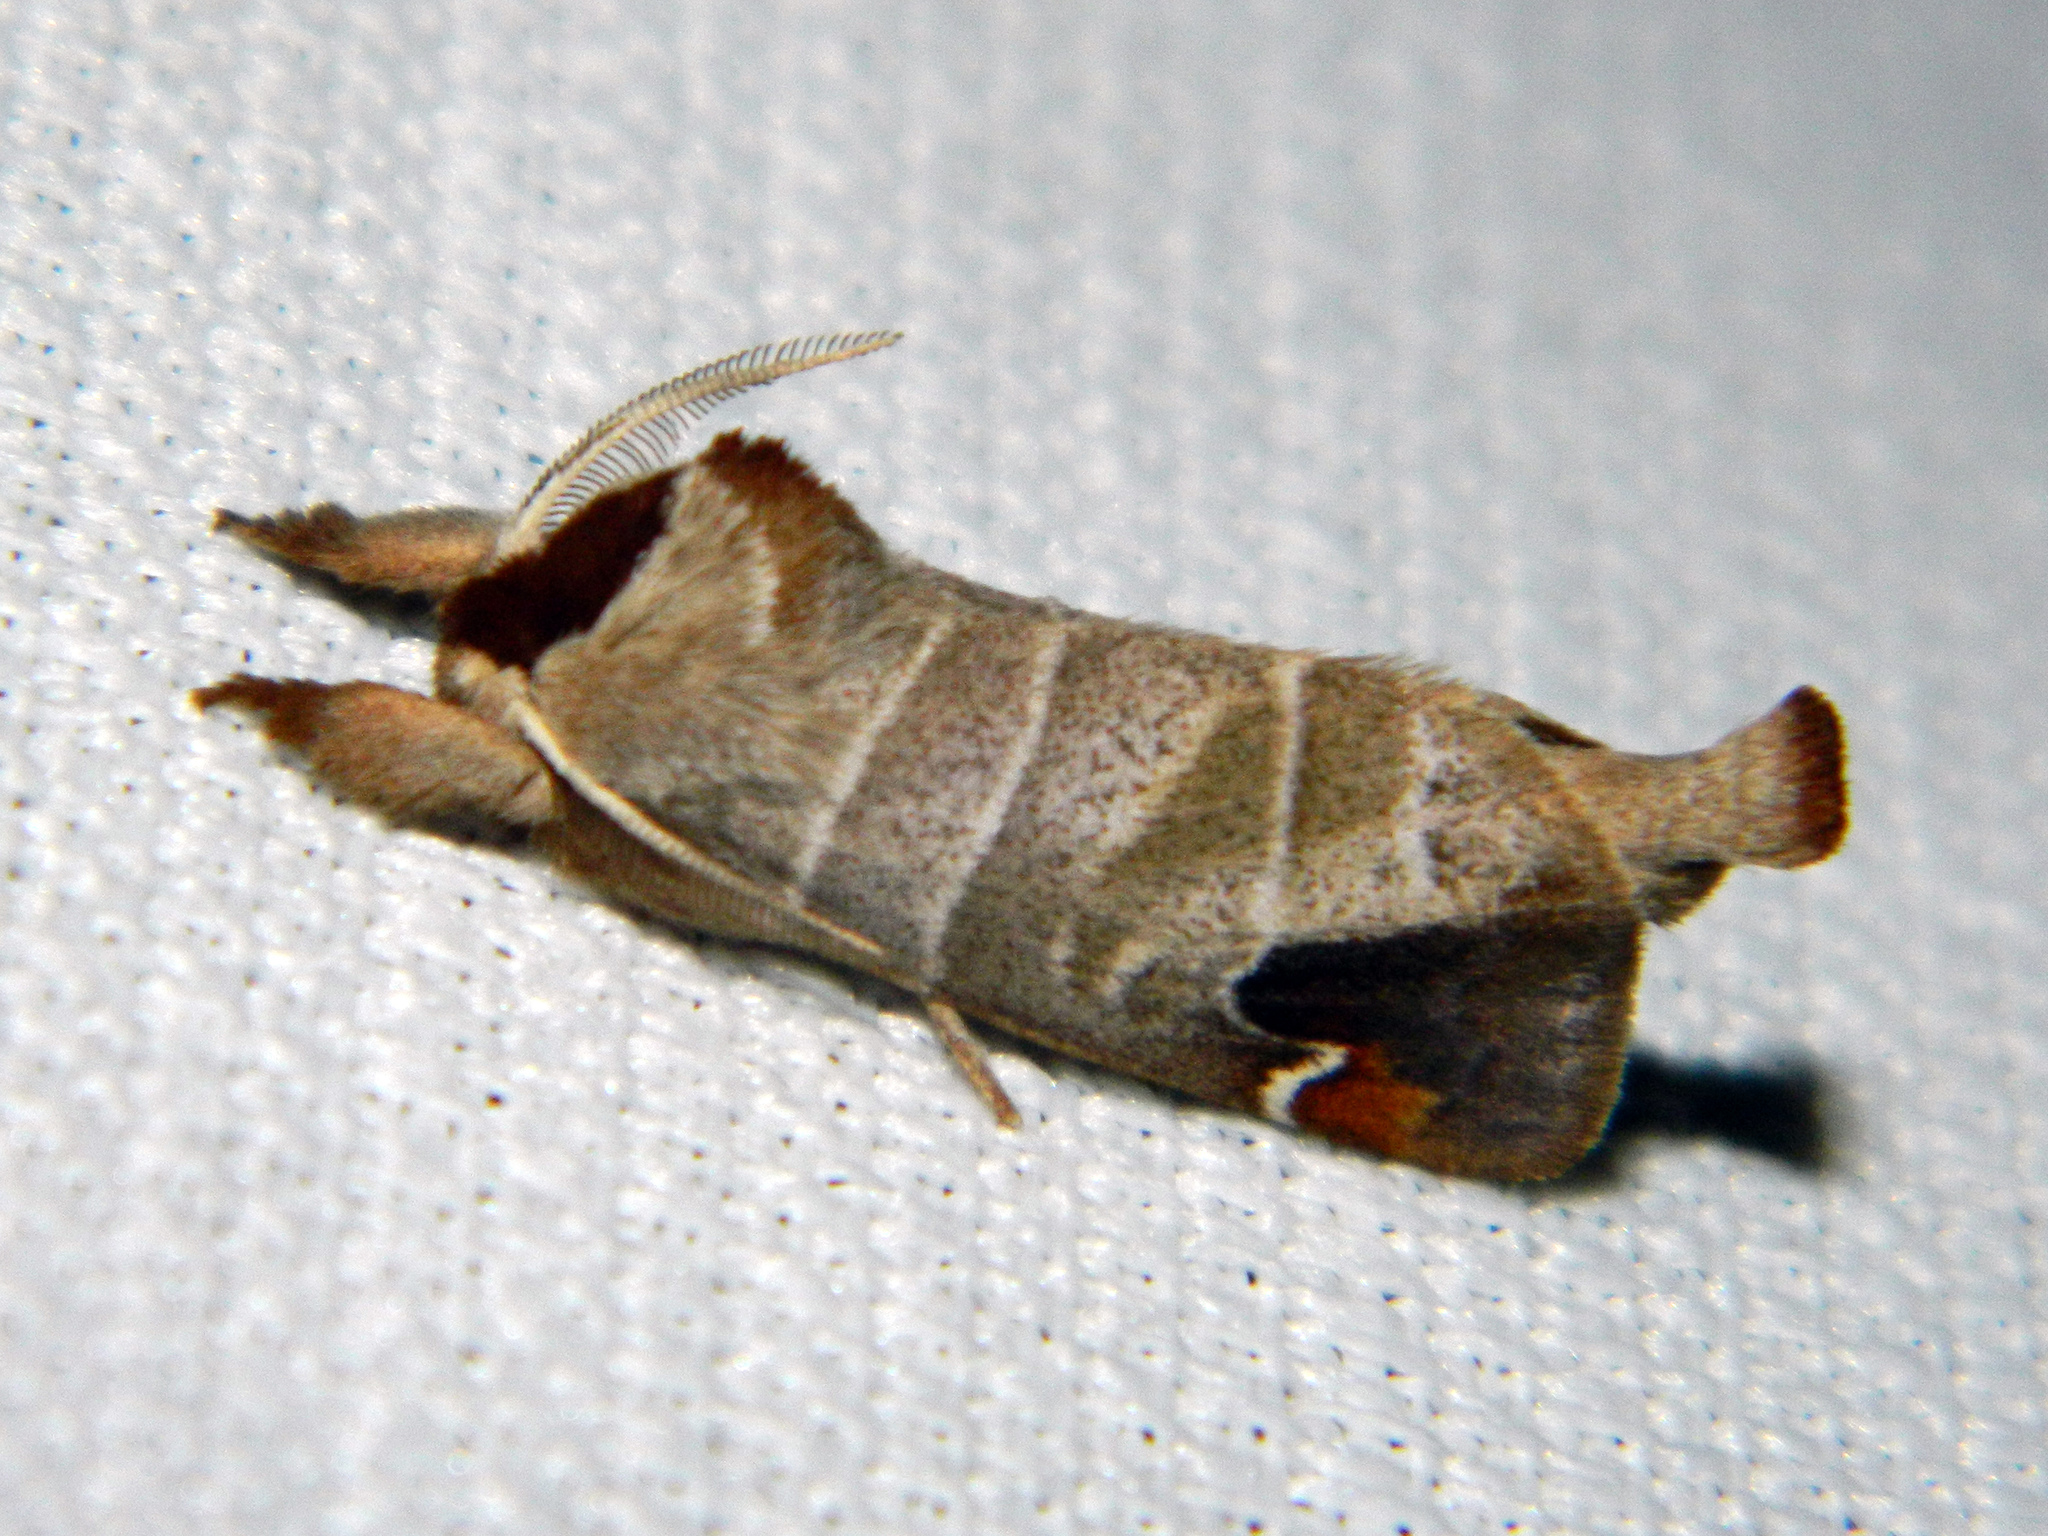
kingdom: Animalia
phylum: Arthropoda
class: Insecta
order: Lepidoptera
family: Notodontidae
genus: Clostera
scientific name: Clostera albosigma
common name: Sigmoid prominent
